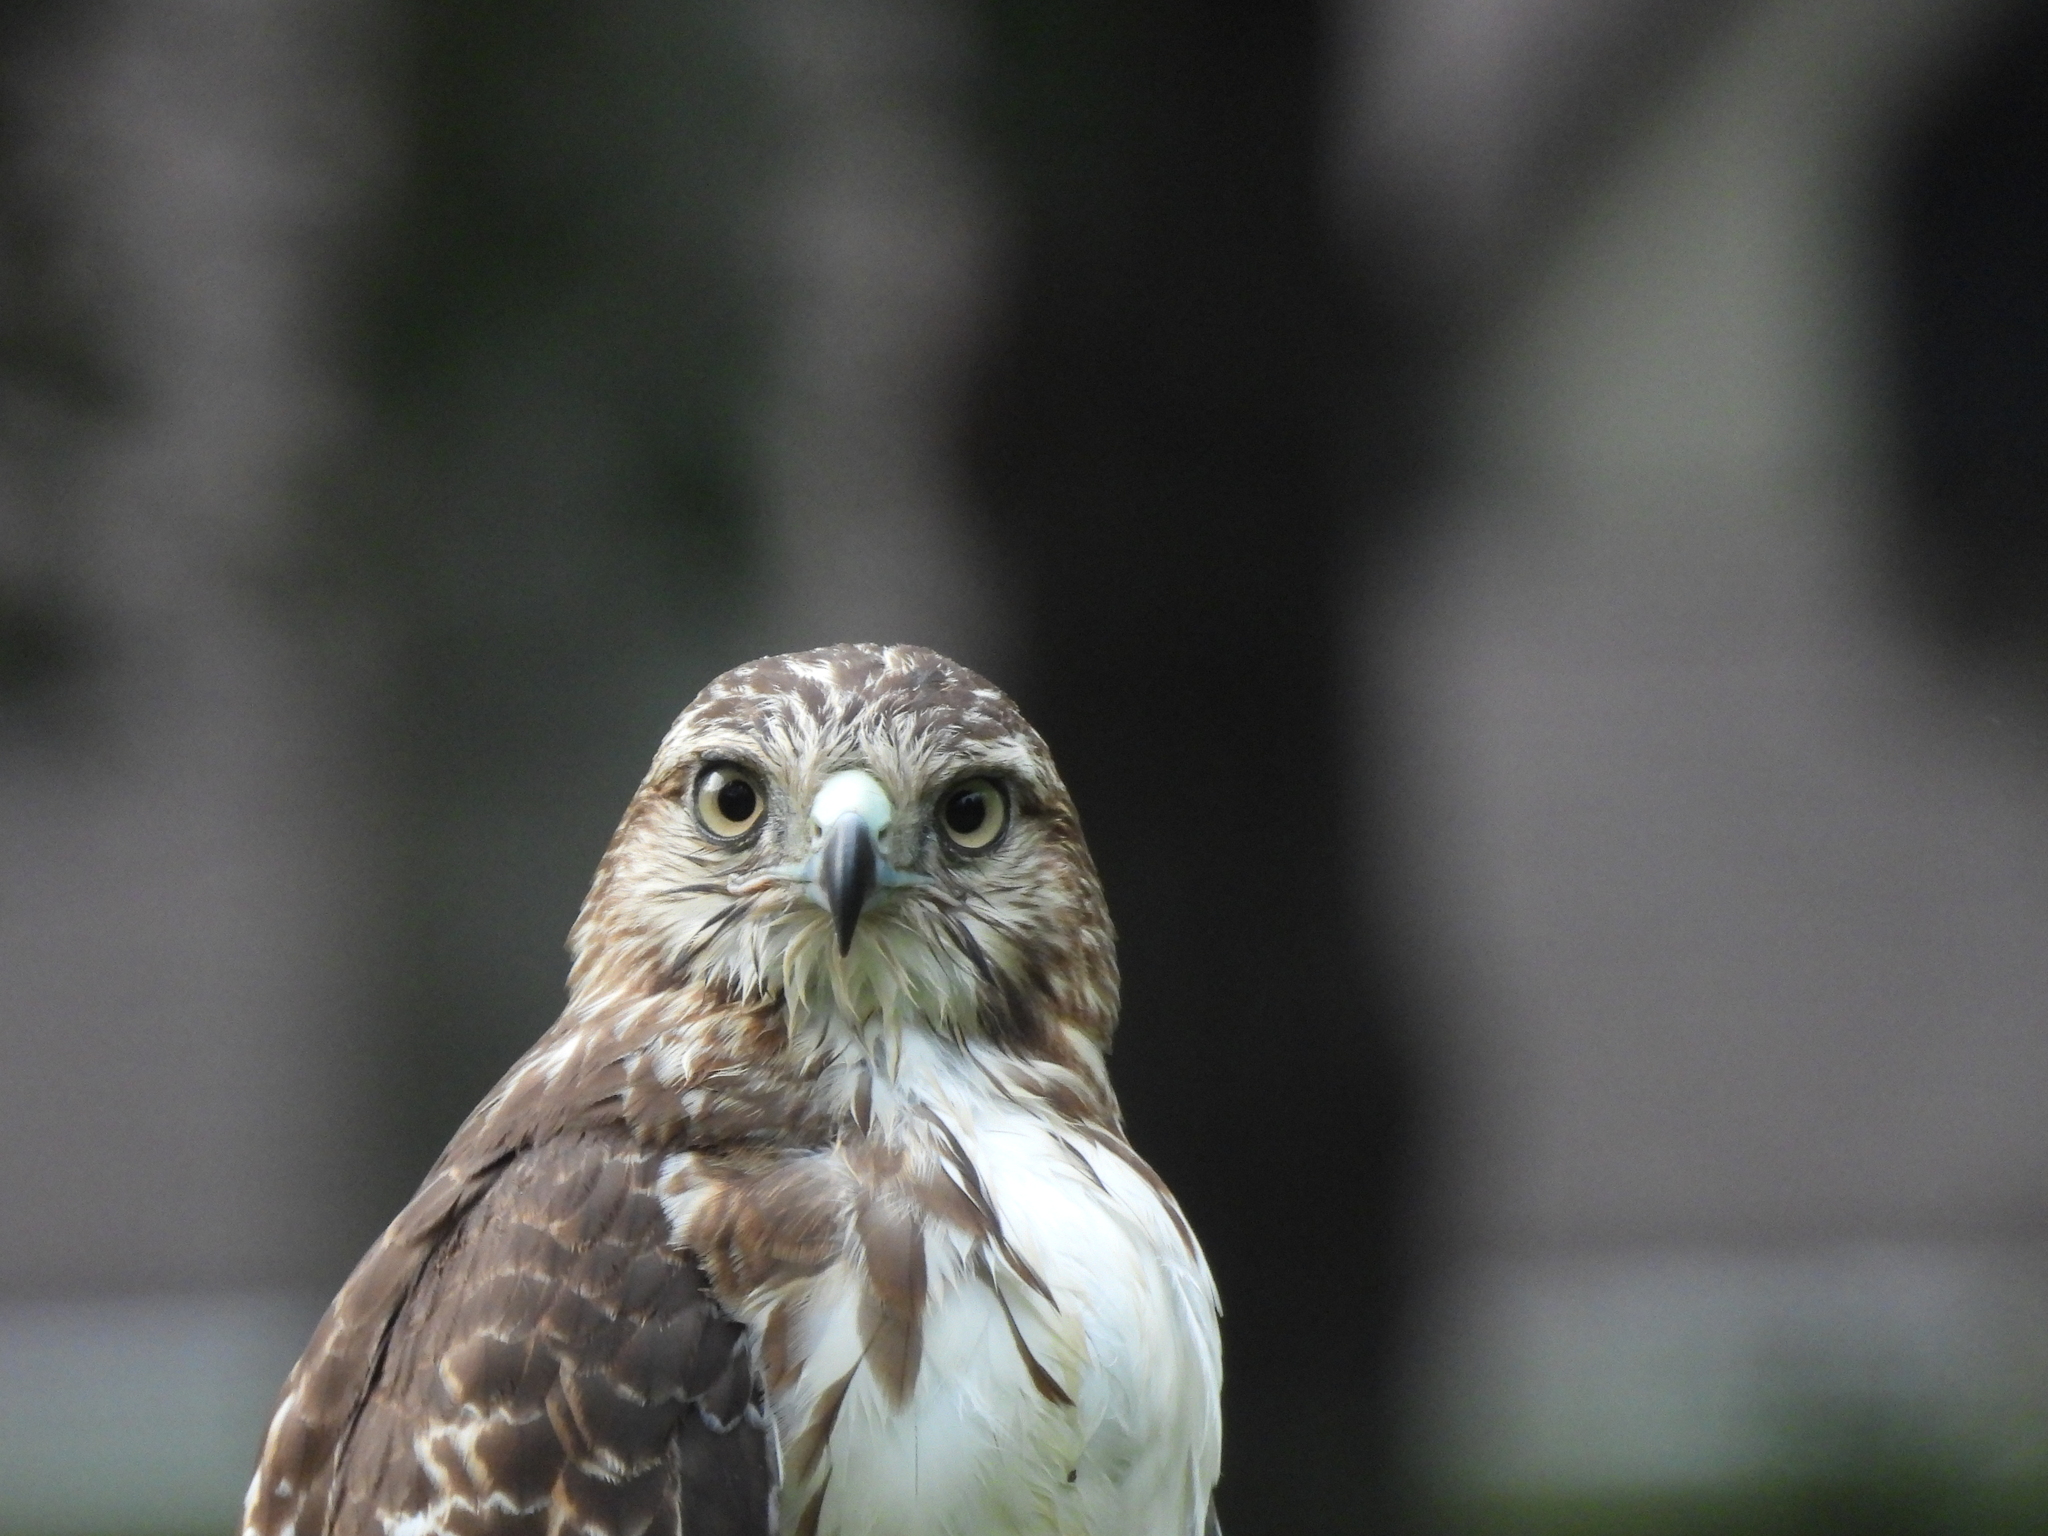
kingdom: Animalia
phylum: Chordata
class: Aves
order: Accipitriformes
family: Accipitridae
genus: Buteo
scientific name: Buteo jamaicensis
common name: Red-tailed hawk
